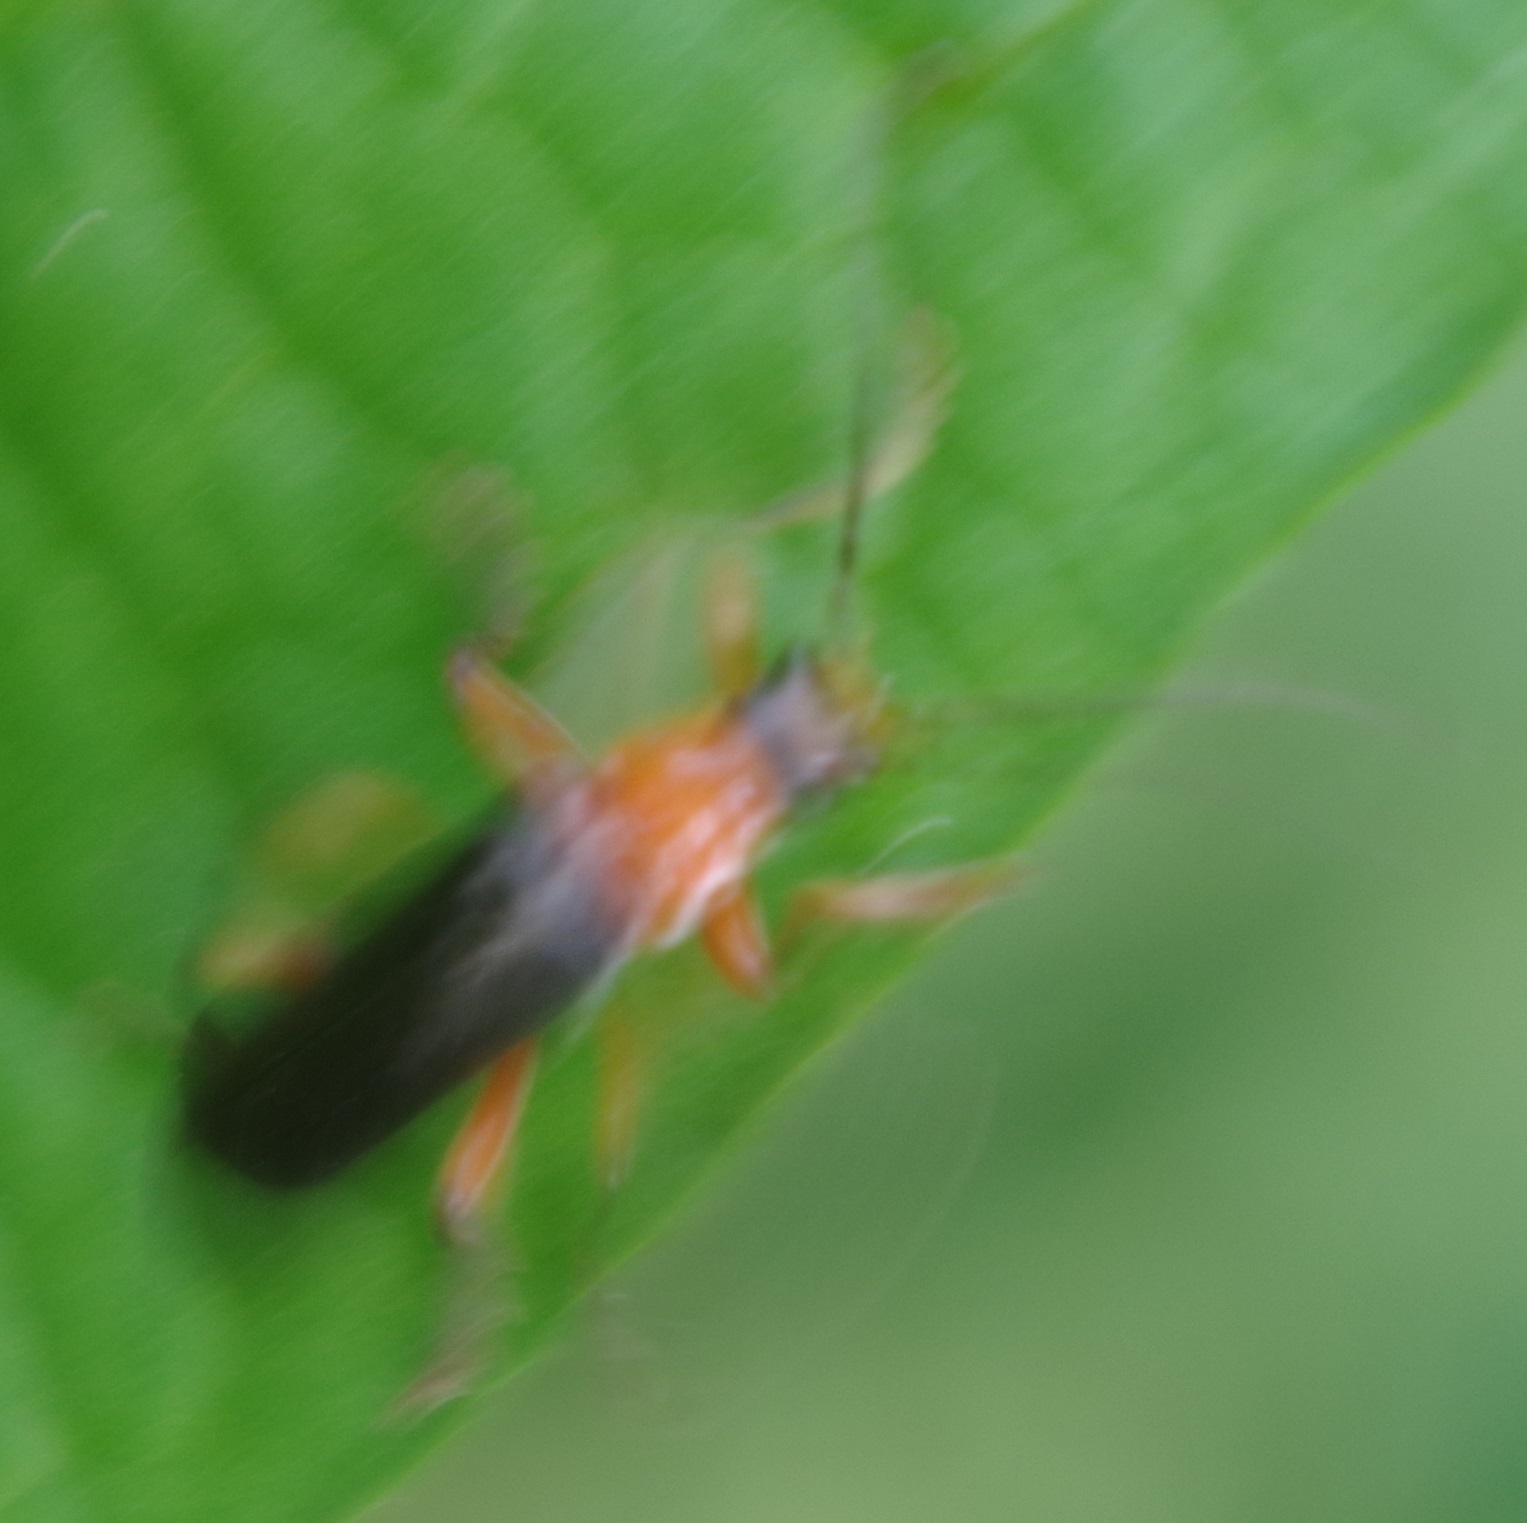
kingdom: Animalia
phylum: Arthropoda
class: Insecta
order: Coleoptera
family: Cantharidae
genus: Cantharis
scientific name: Cantharis pellucida
